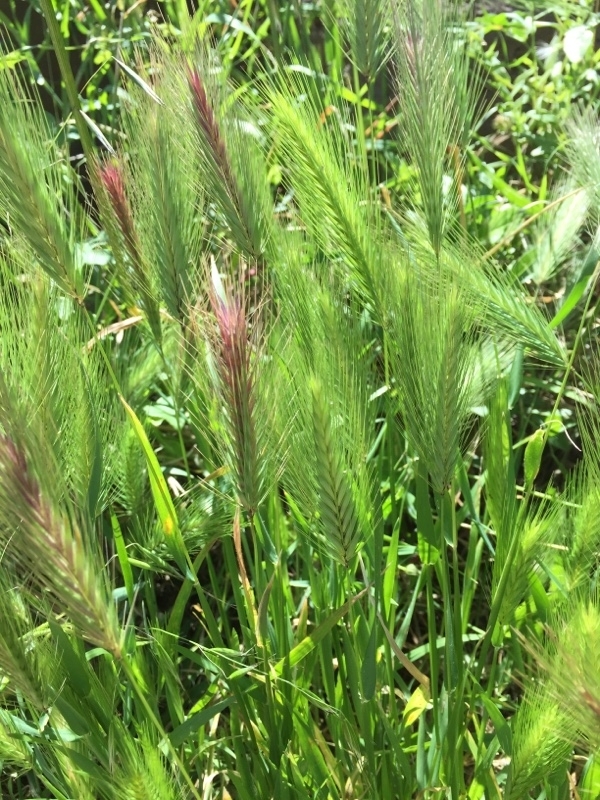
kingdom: Plantae
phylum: Tracheophyta
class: Liliopsida
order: Poales
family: Poaceae
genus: Hordeum
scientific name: Hordeum murinum
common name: Wall barley
